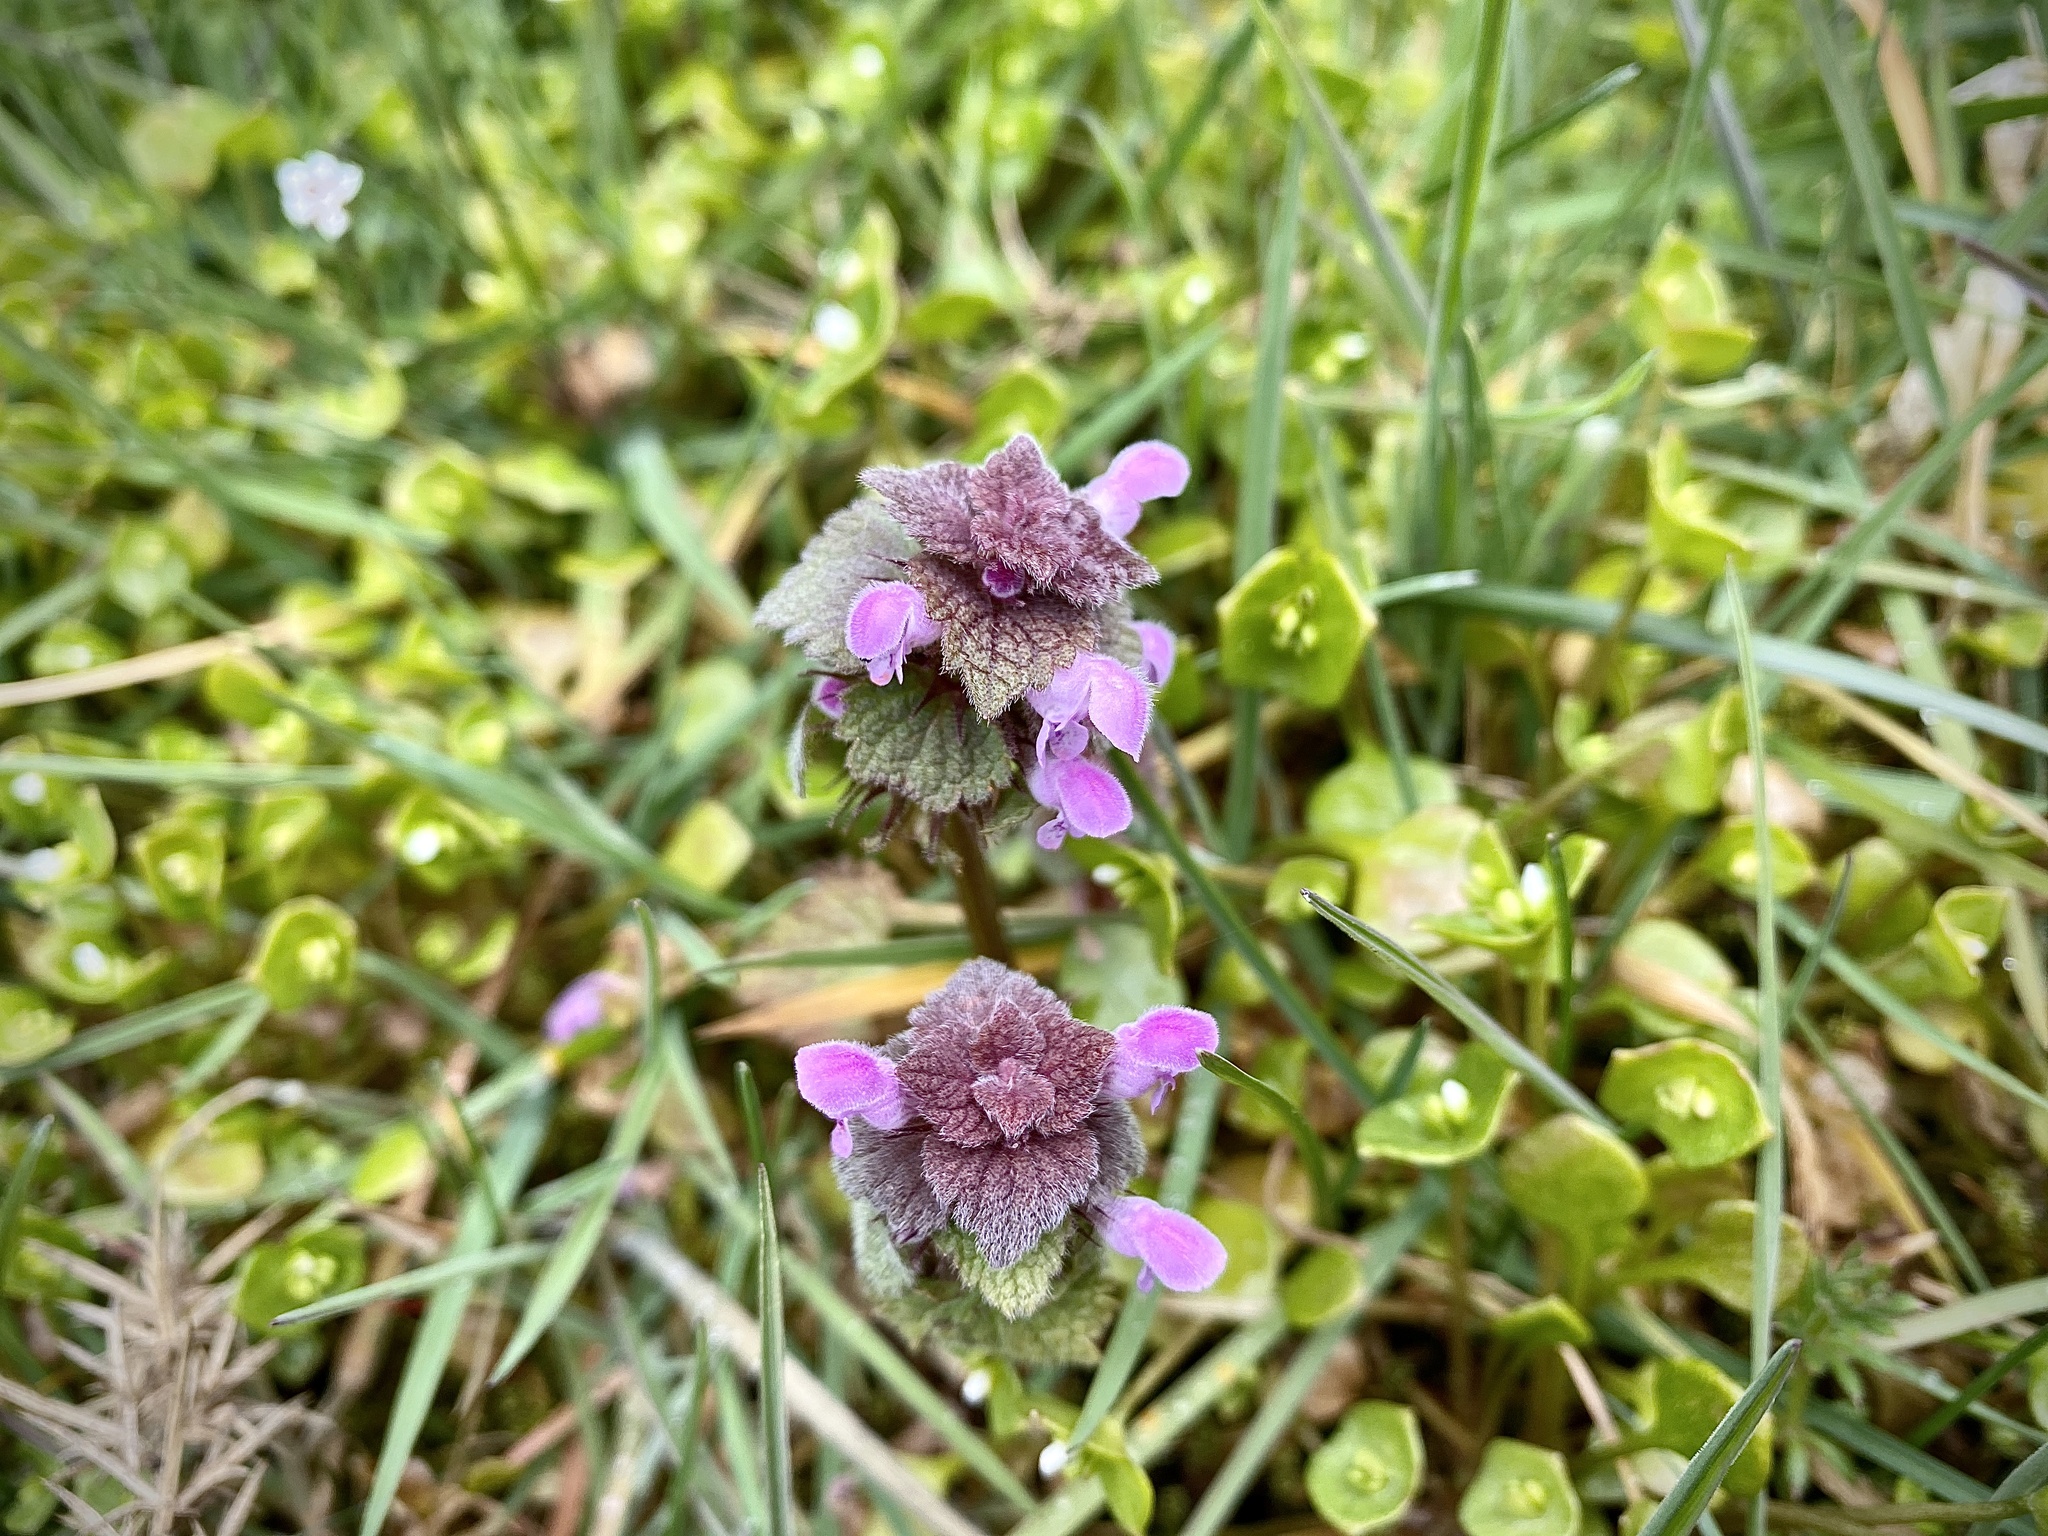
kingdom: Plantae
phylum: Tracheophyta
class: Magnoliopsida
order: Lamiales
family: Lamiaceae
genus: Lamium
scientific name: Lamium purpureum
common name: Red dead-nettle
